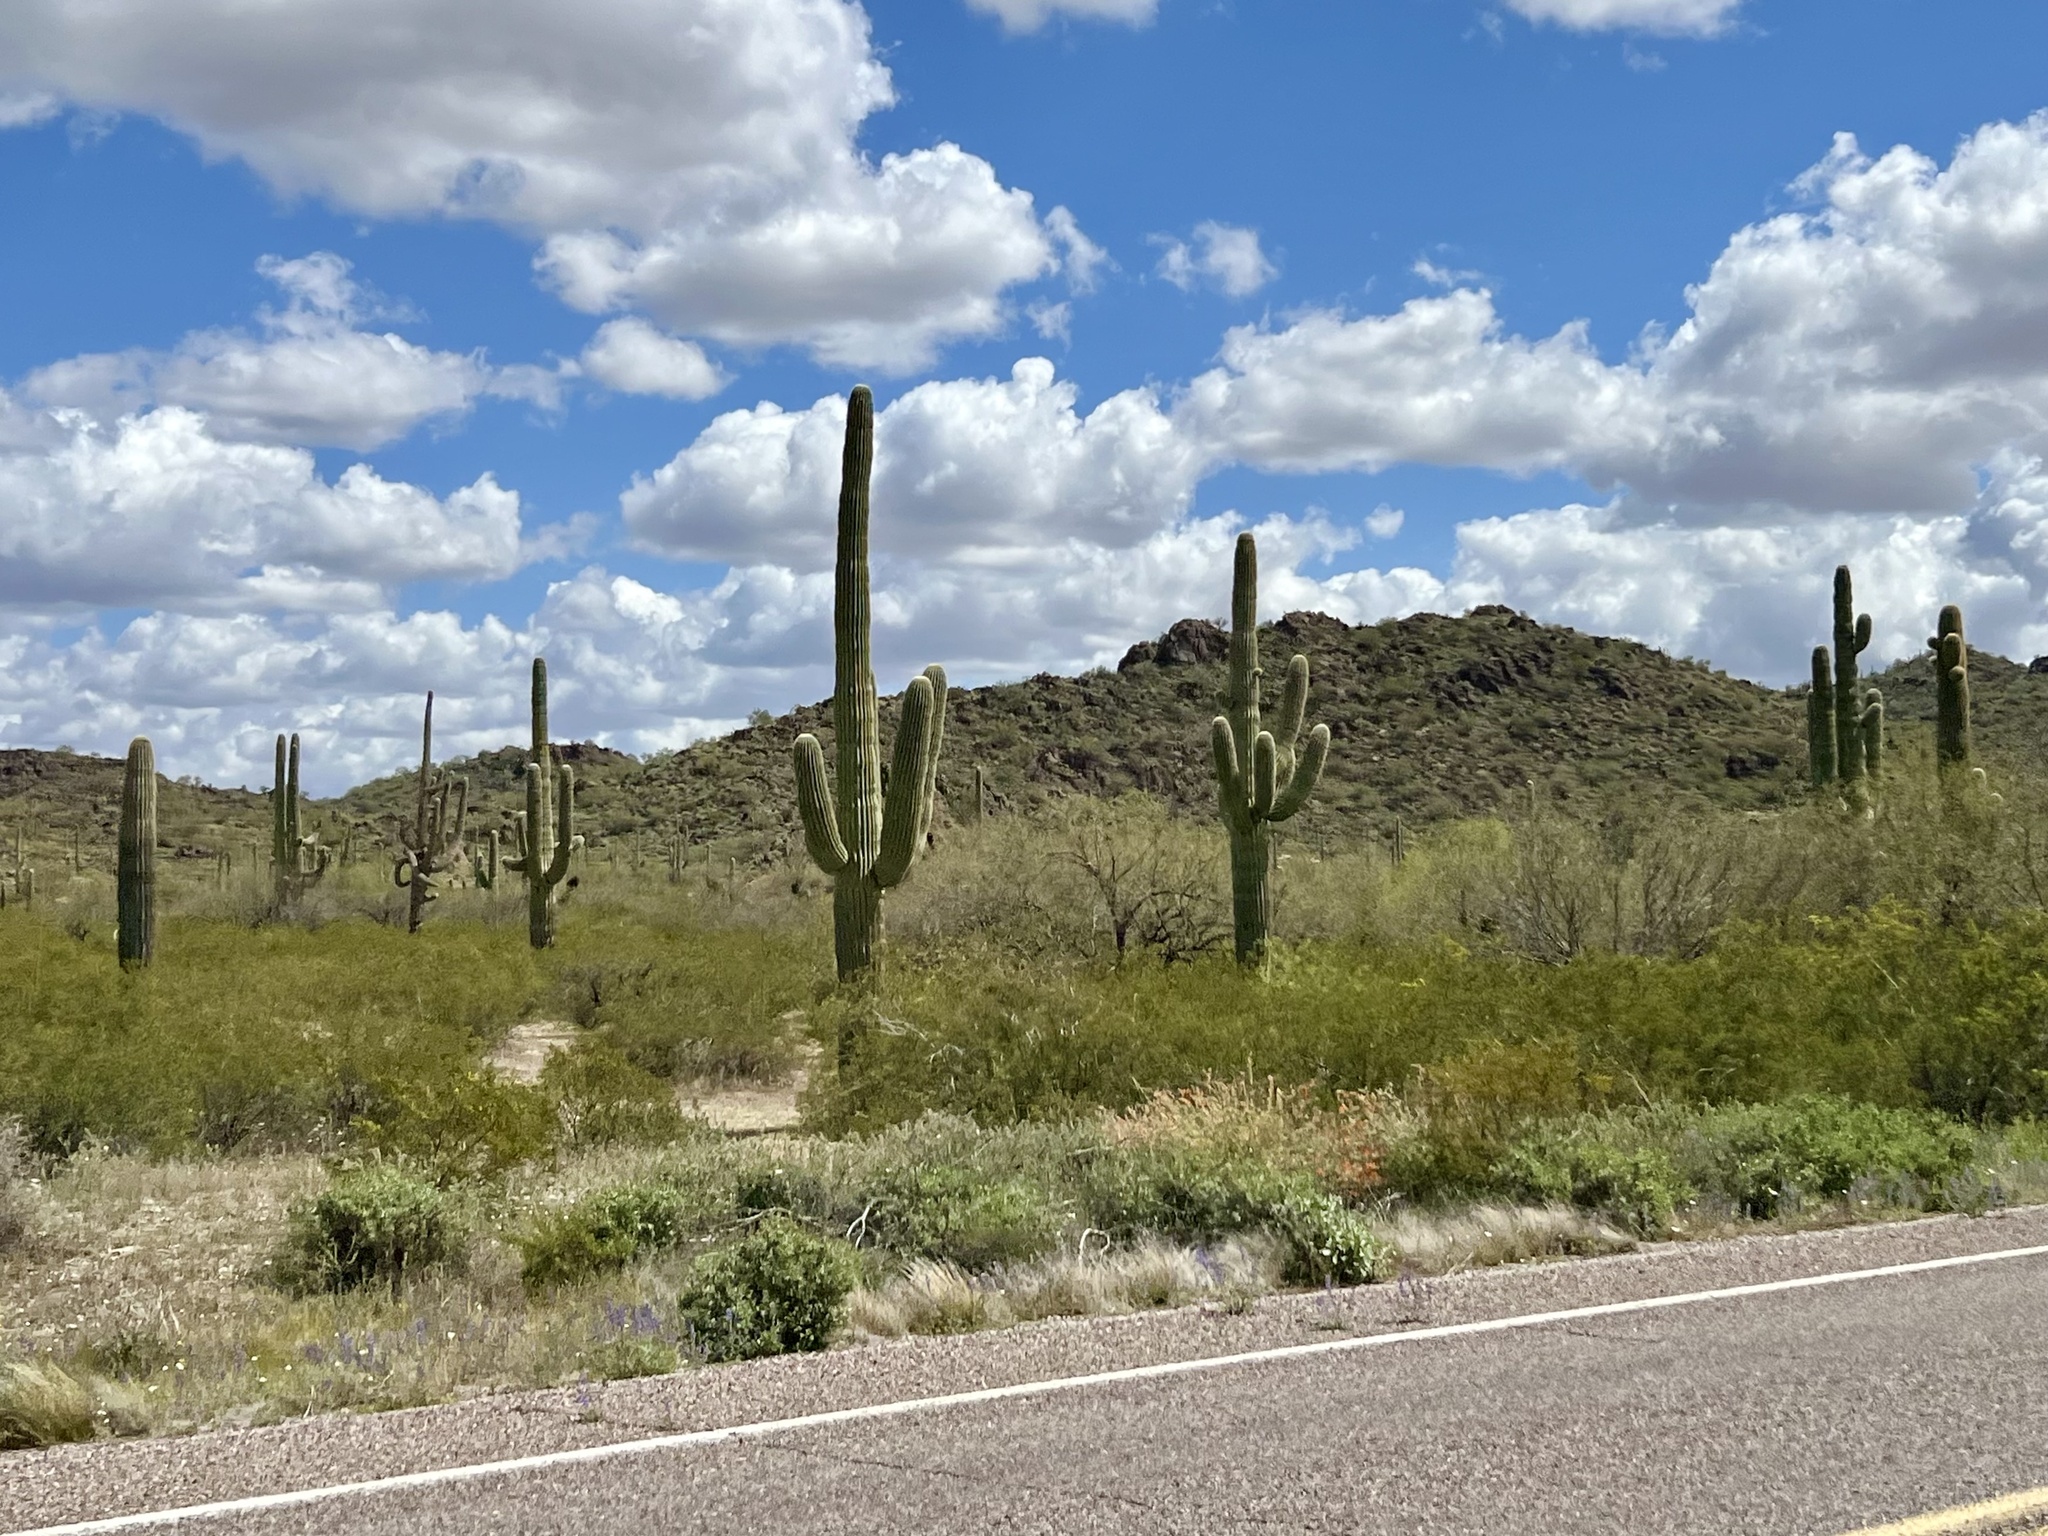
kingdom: Plantae
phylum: Tracheophyta
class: Magnoliopsida
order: Caryophyllales
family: Cactaceae
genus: Carnegiea
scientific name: Carnegiea gigantea
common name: Saguaro
